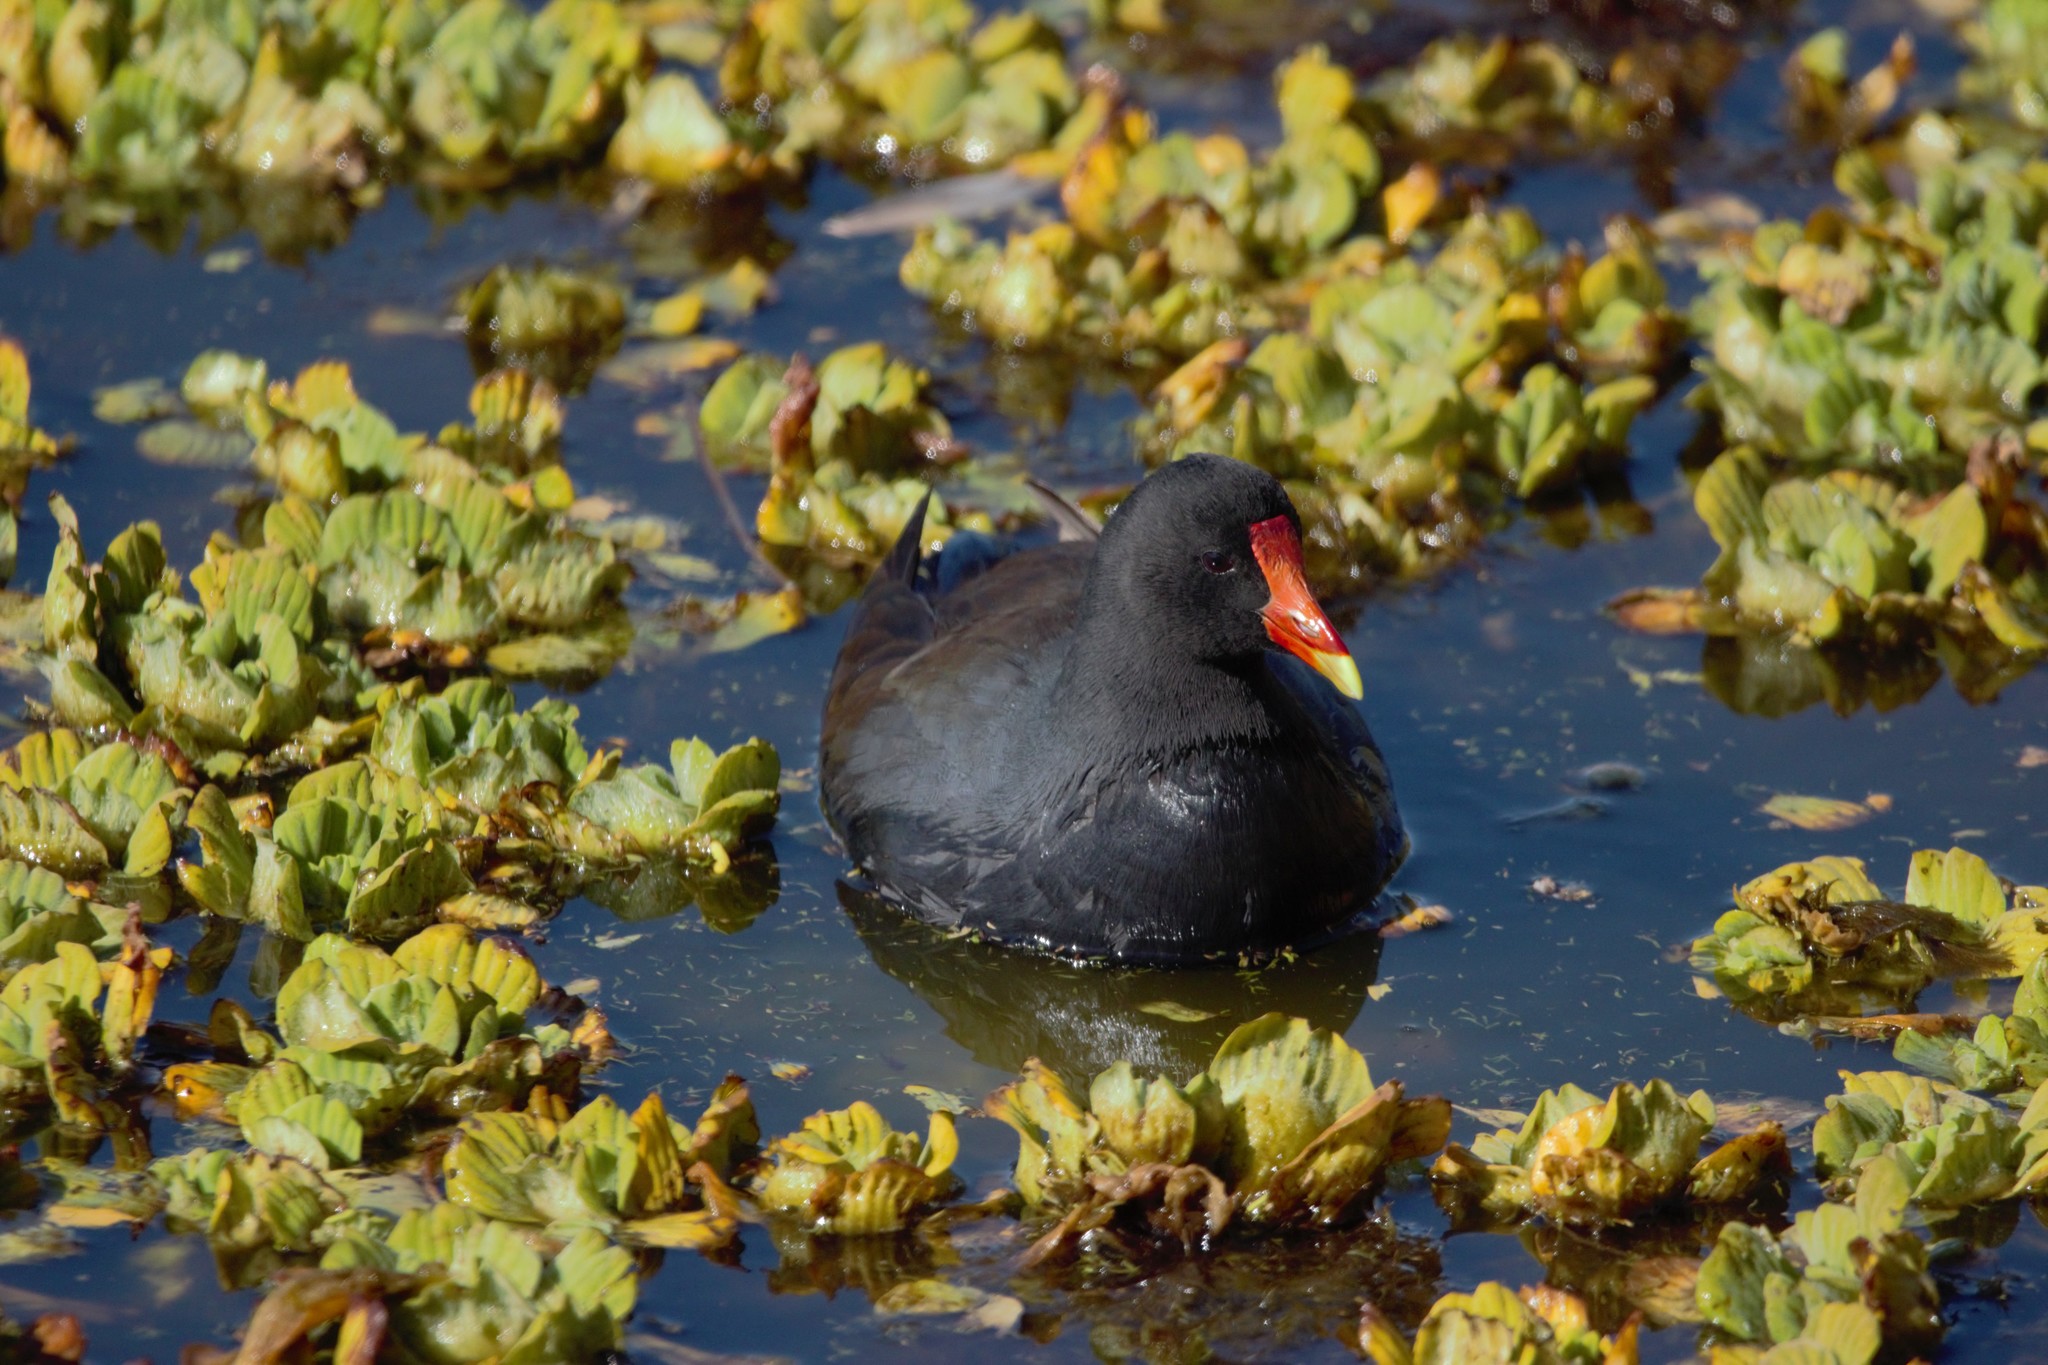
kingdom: Animalia
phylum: Chordata
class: Aves
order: Gruiformes
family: Rallidae
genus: Gallinula
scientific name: Gallinula chloropus
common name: Common moorhen
